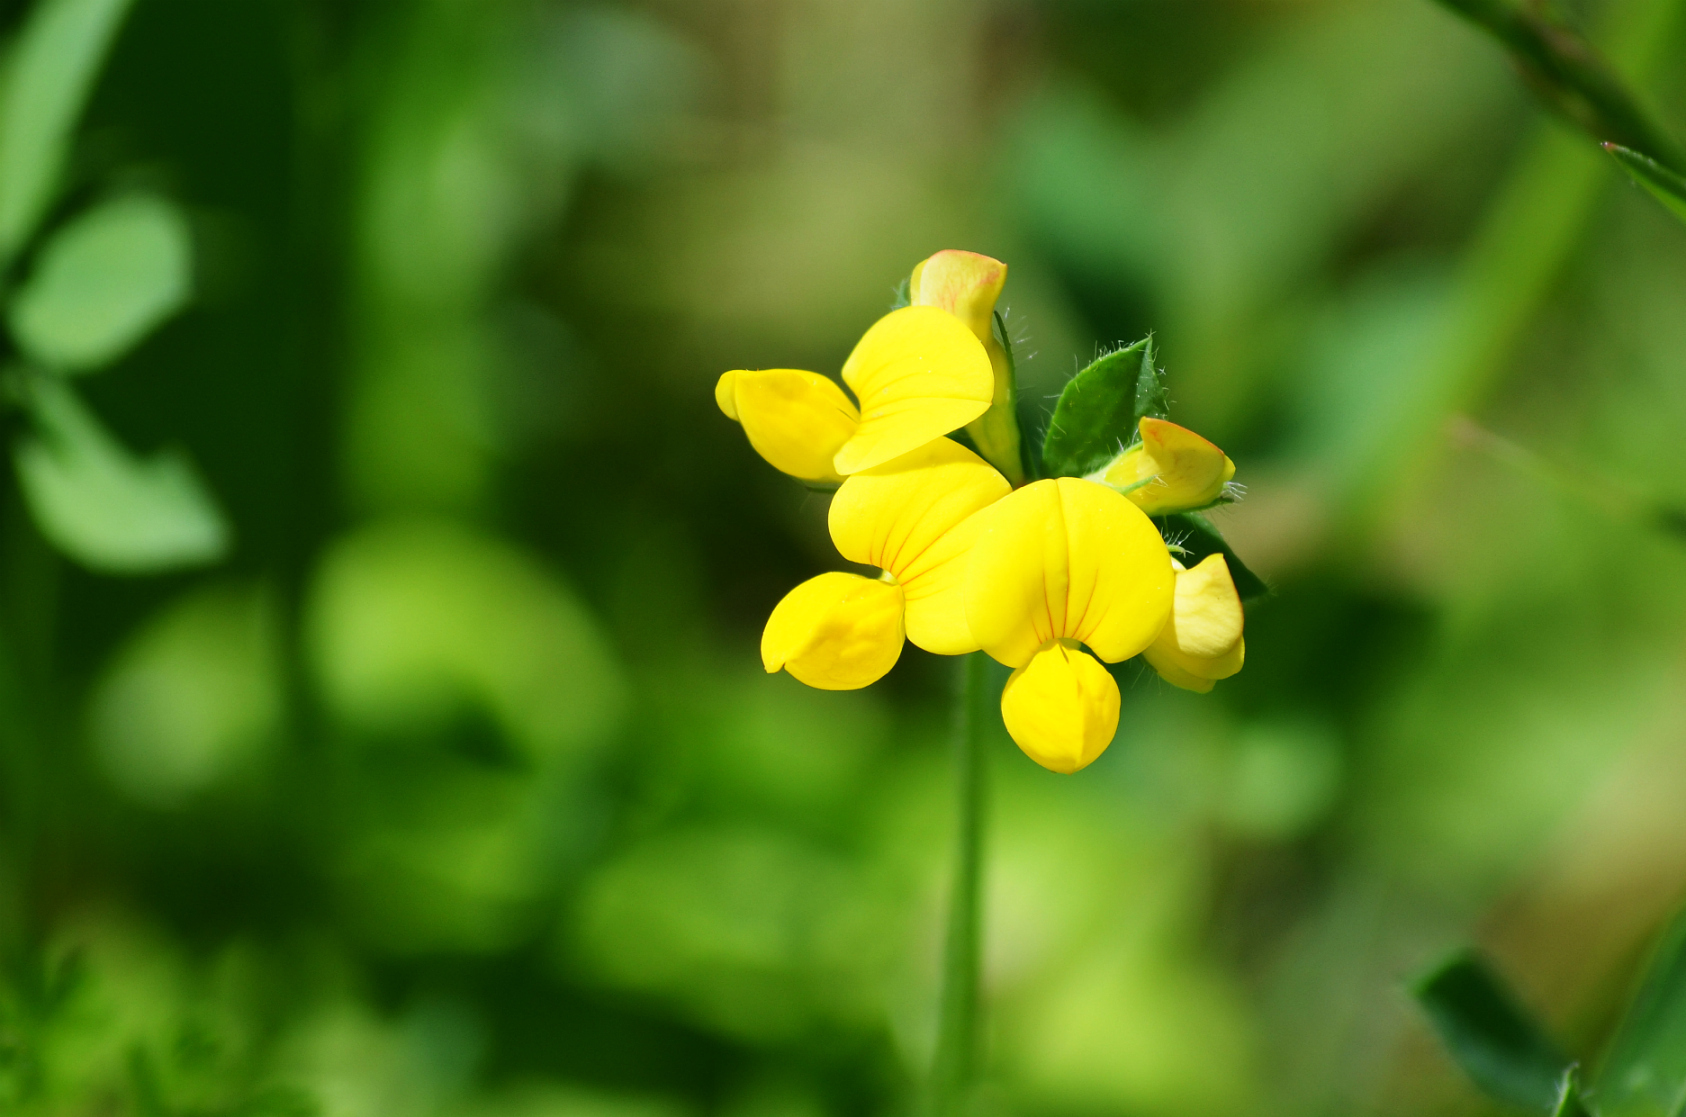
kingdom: Plantae
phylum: Tracheophyta
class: Magnoliopsida
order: Fabales
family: Fabaceae
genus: Lotus
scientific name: Lotus corniculatus
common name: Common bird's-foot-trefoil
